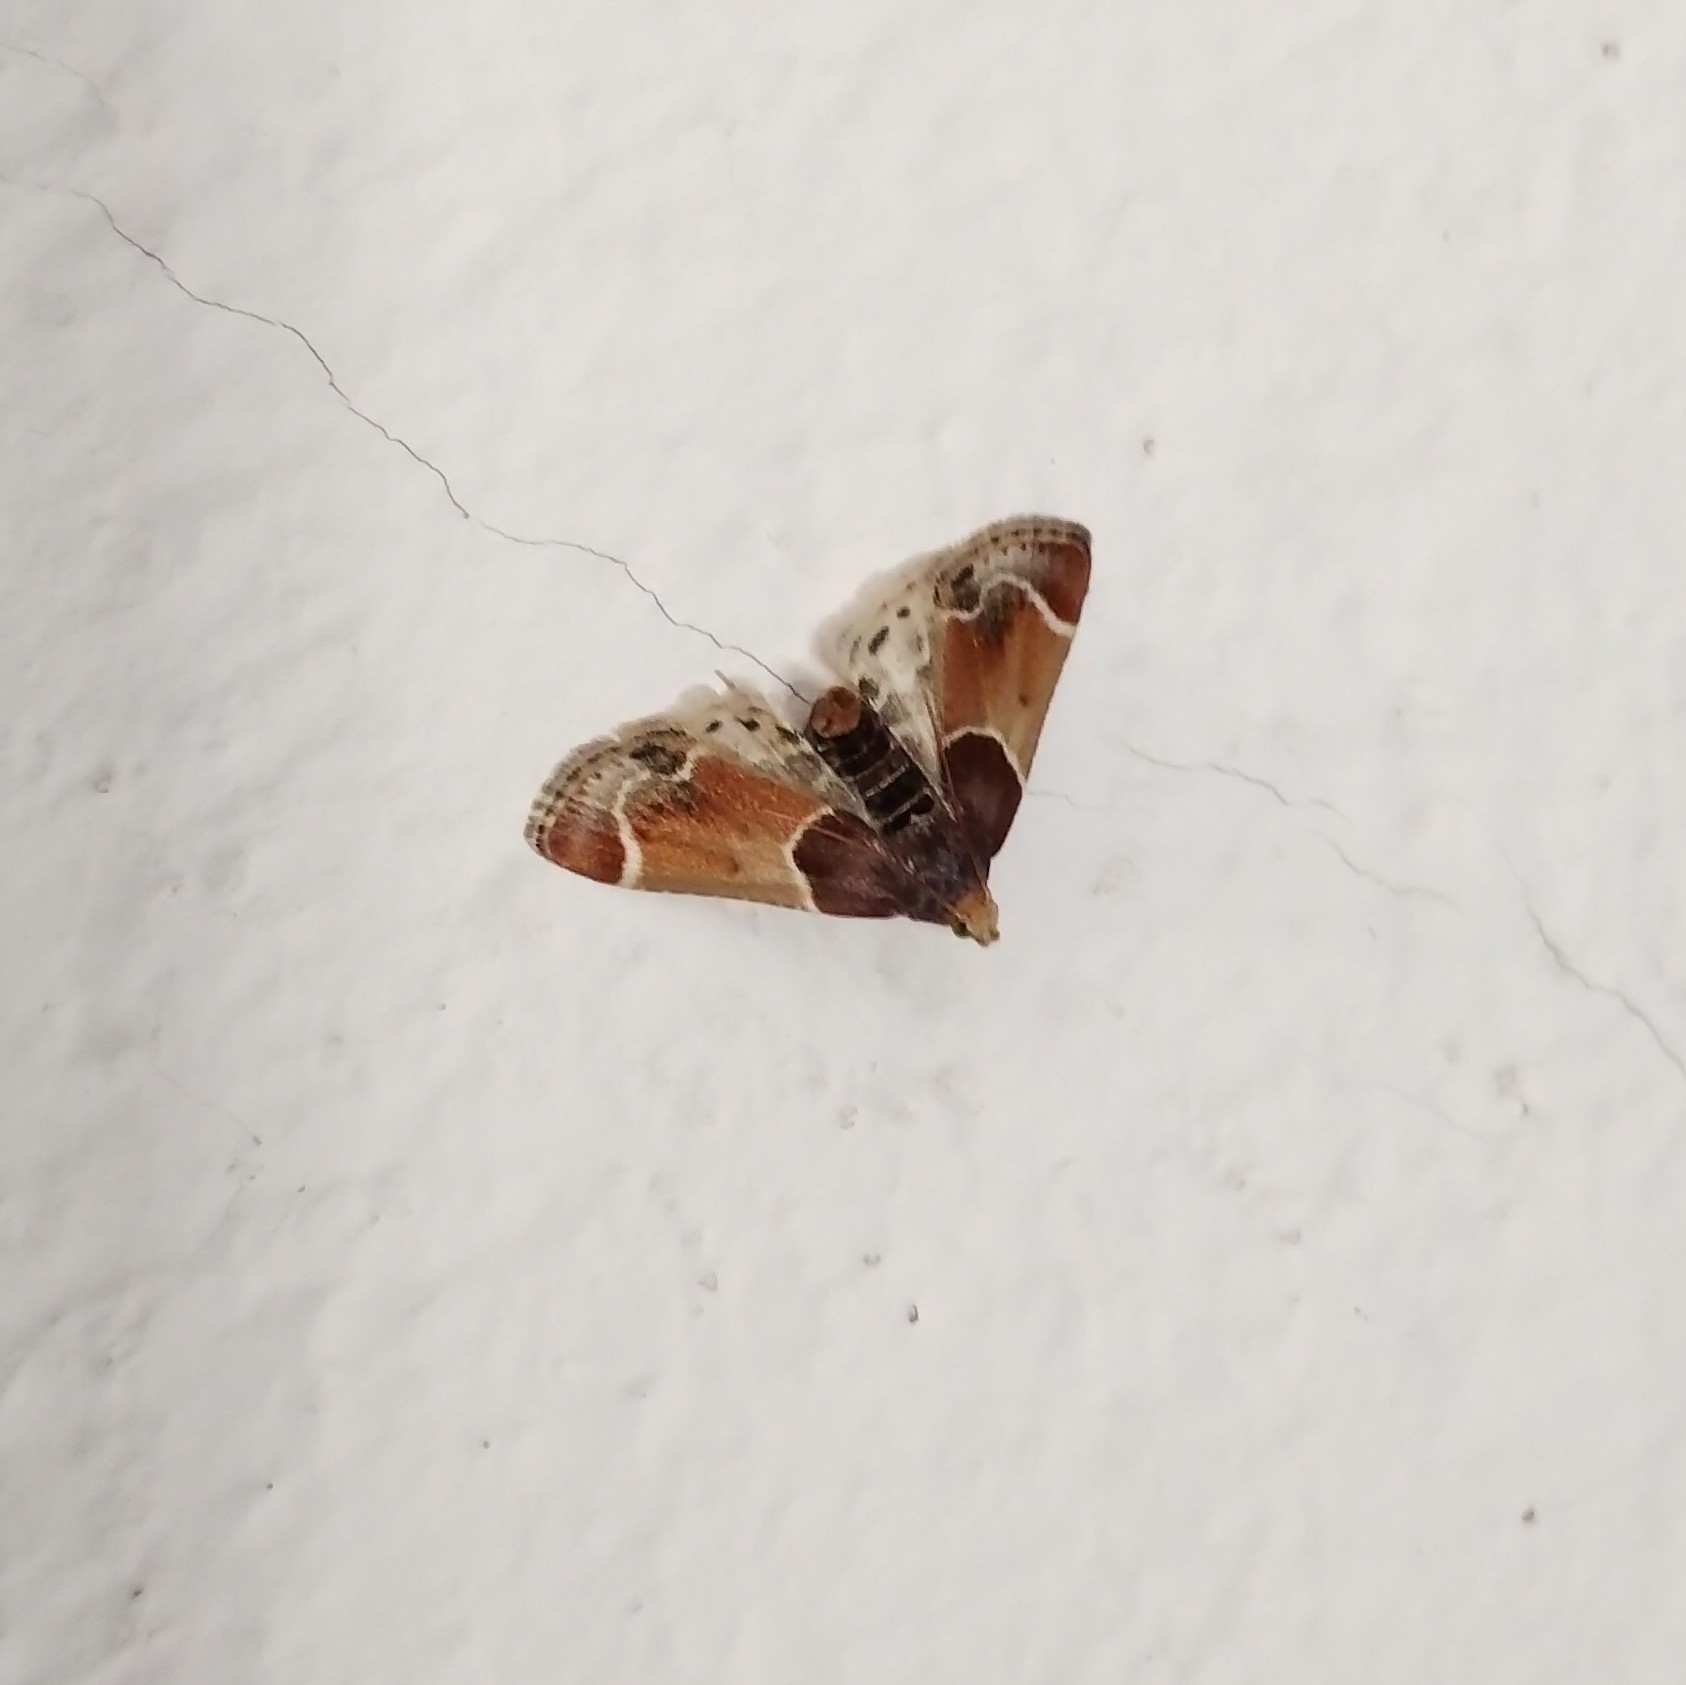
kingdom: Animalia
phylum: Arthropoda
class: Insecta
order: Lepidoptera
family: Pyralidae
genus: Pyralis
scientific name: Pyralis farinalis
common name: Meal moth
